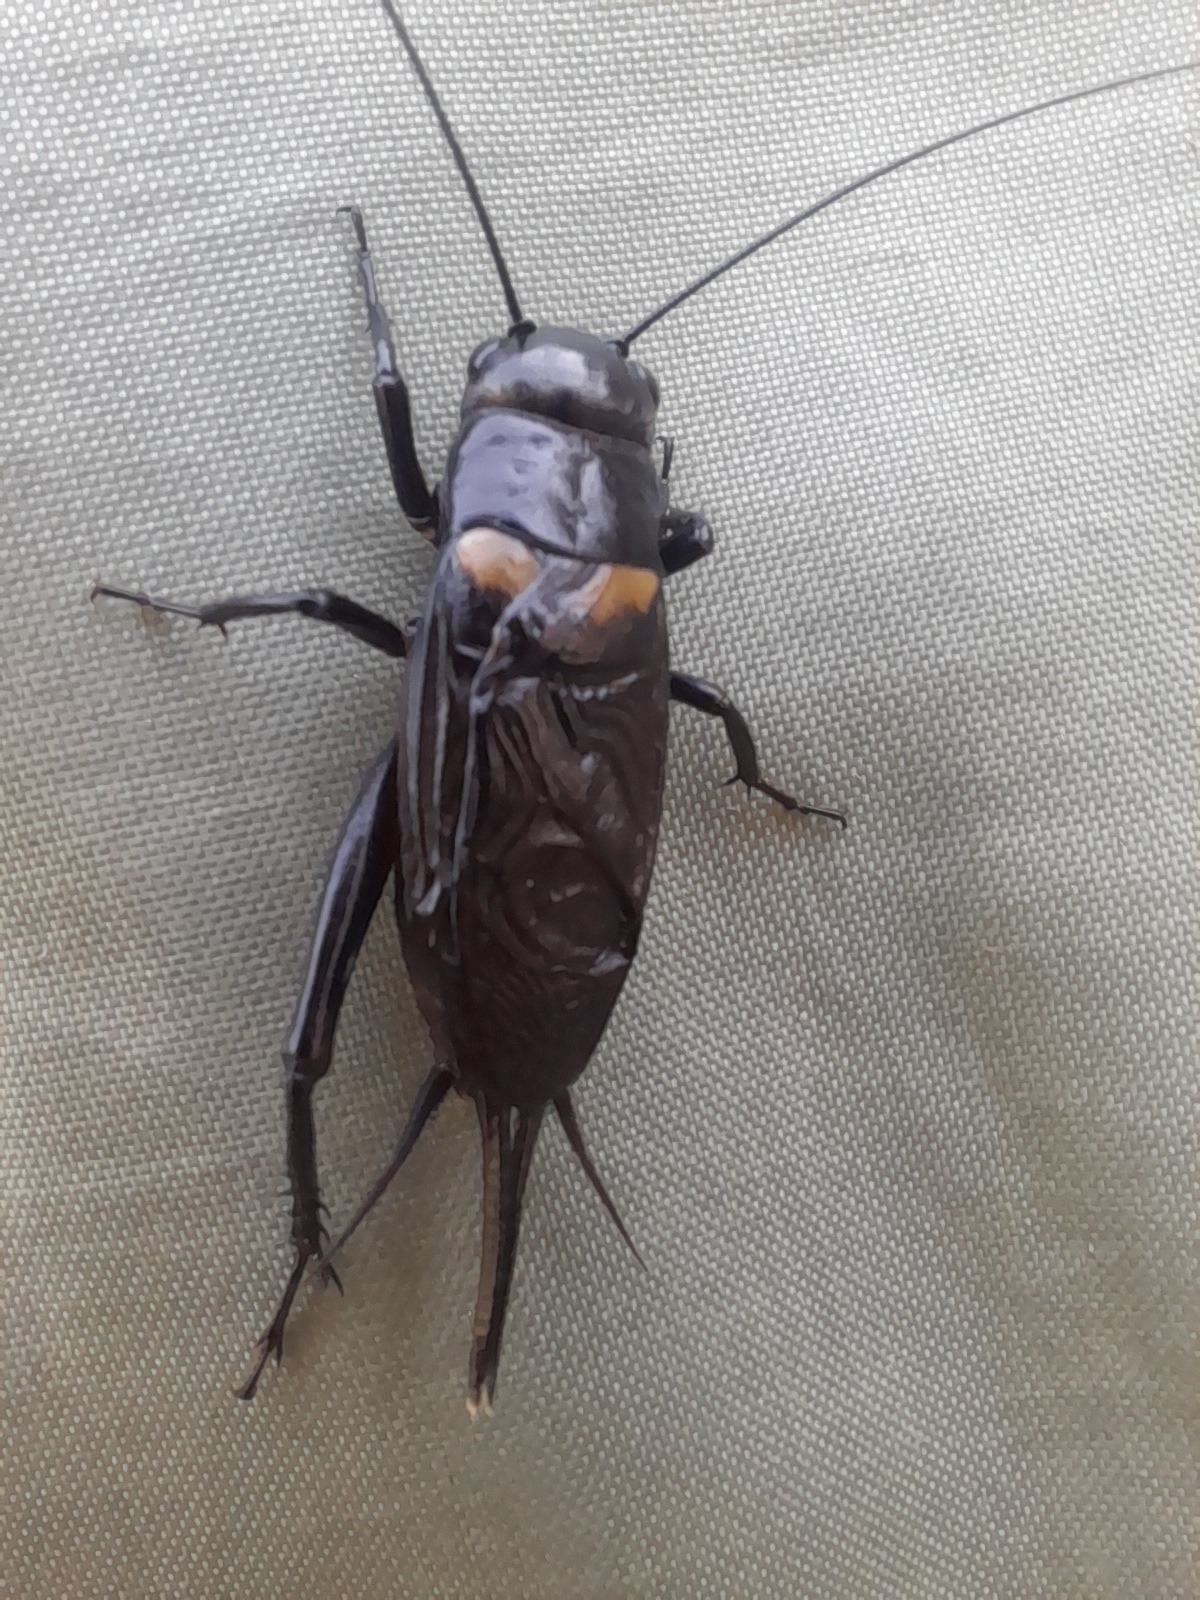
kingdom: Animalia
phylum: Arthropoda
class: Insecta
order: Orthoptera
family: Gryllidae
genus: Gryllus
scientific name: Gryllus bimaculatus
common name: Two-spotted cricket
